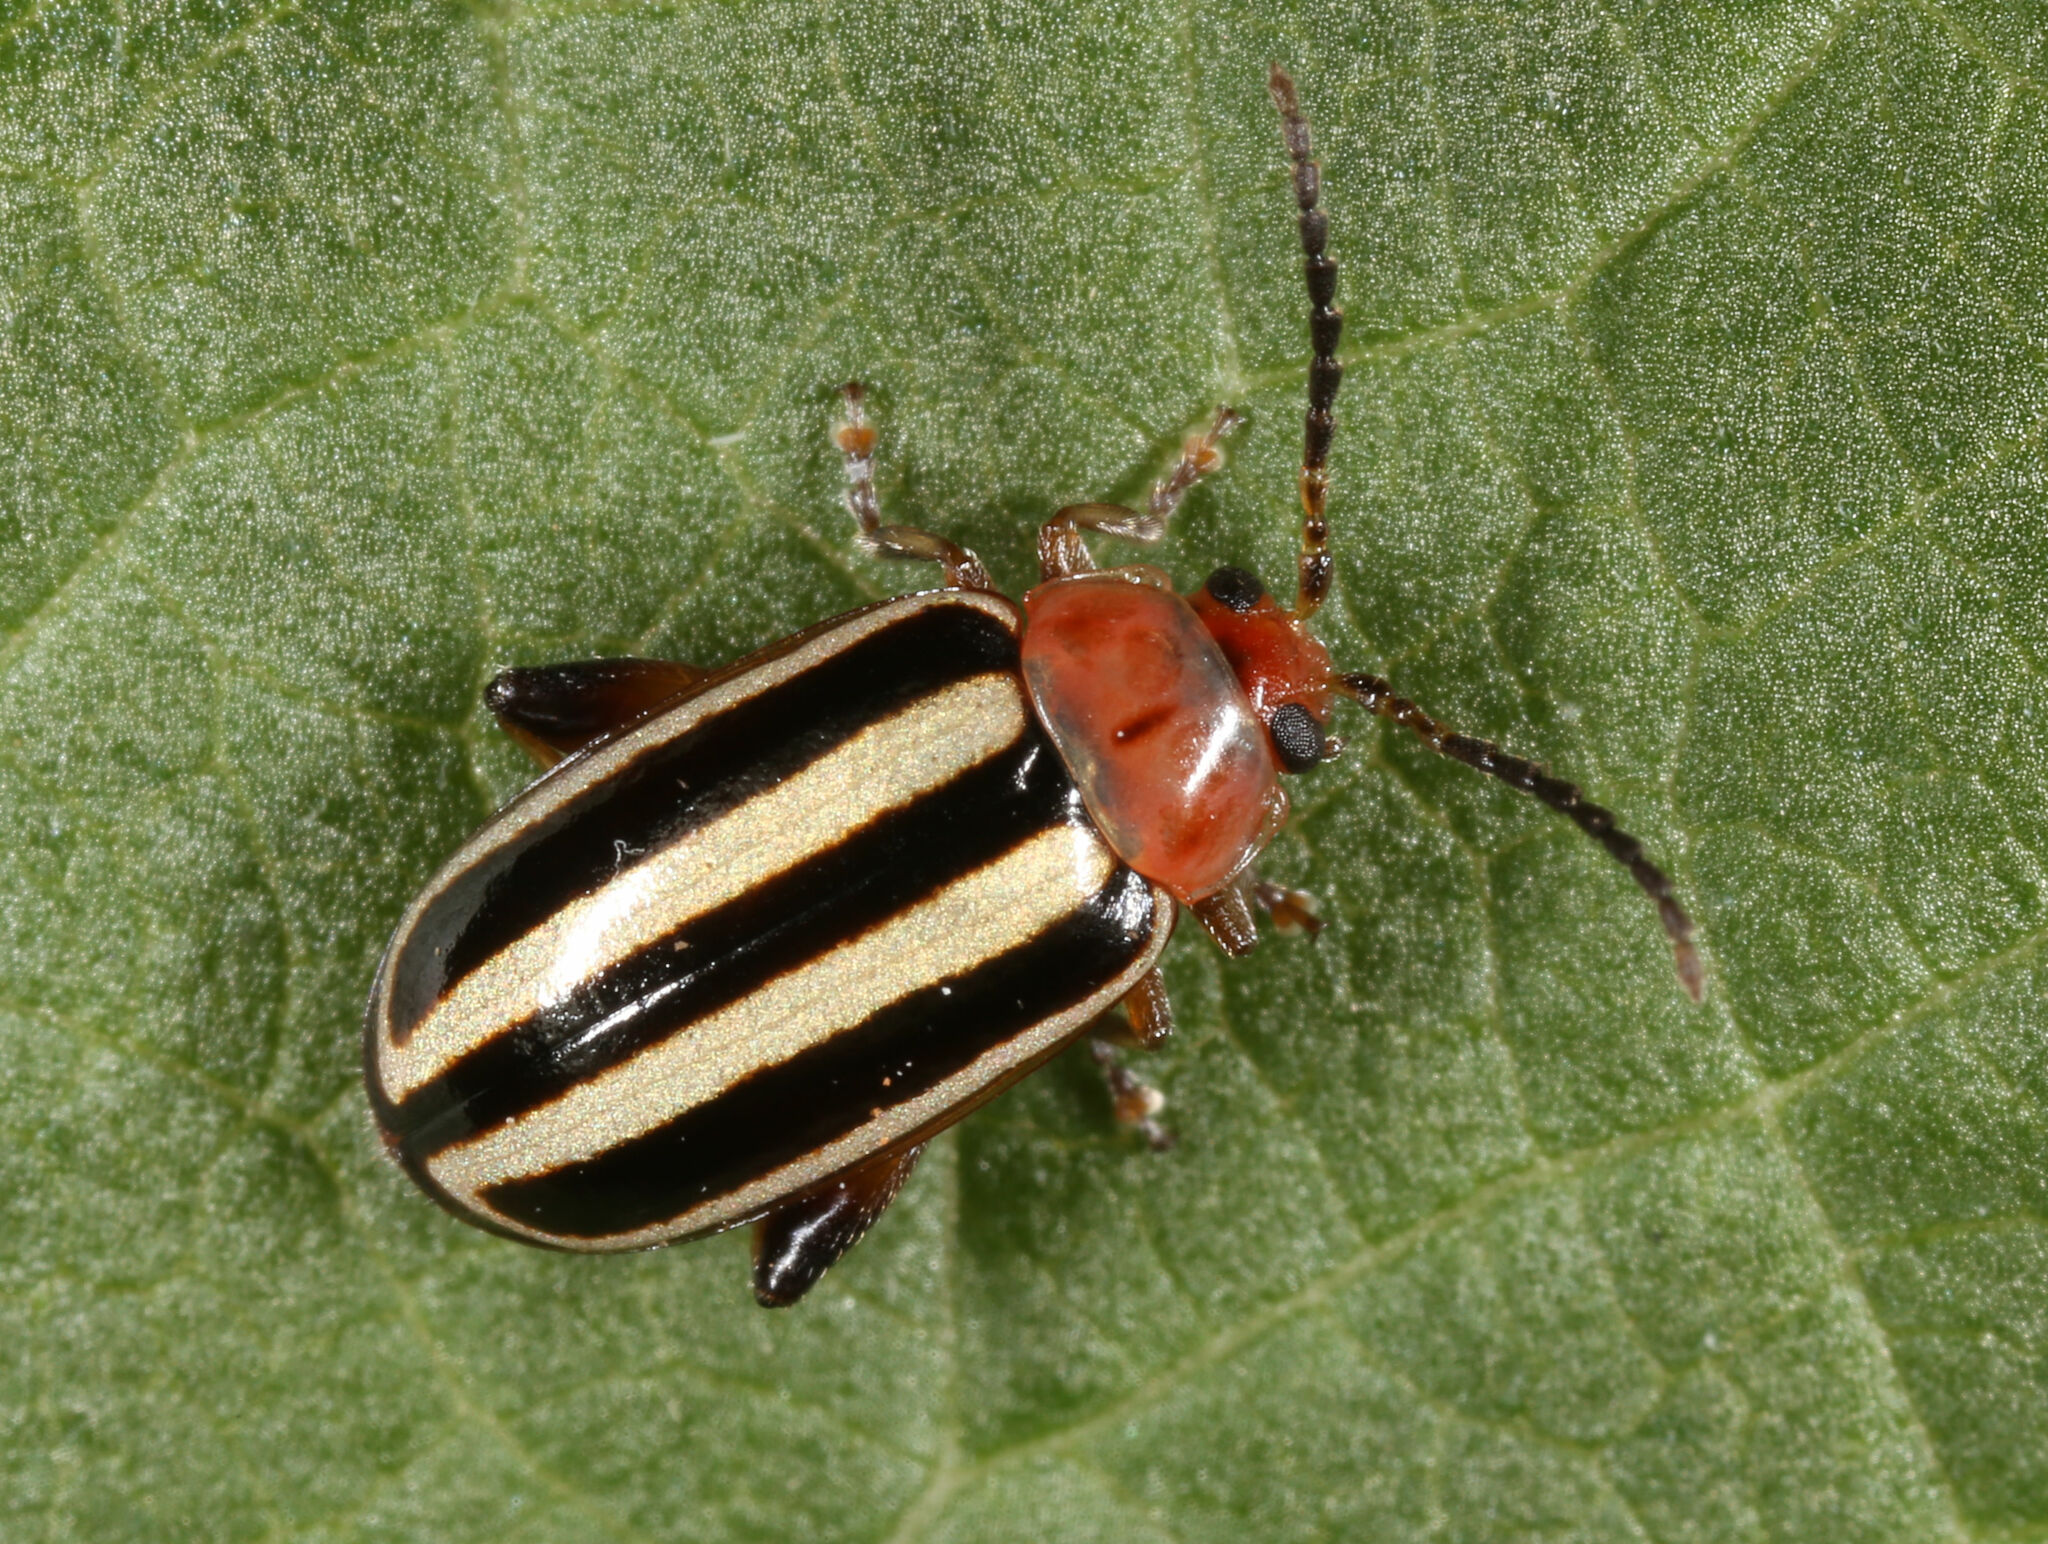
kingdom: Animalia
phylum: Arthropoda
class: Insecta
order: Coleoptera
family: Chrysomelidae
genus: Disonycha
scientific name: Disonycha glabrata
